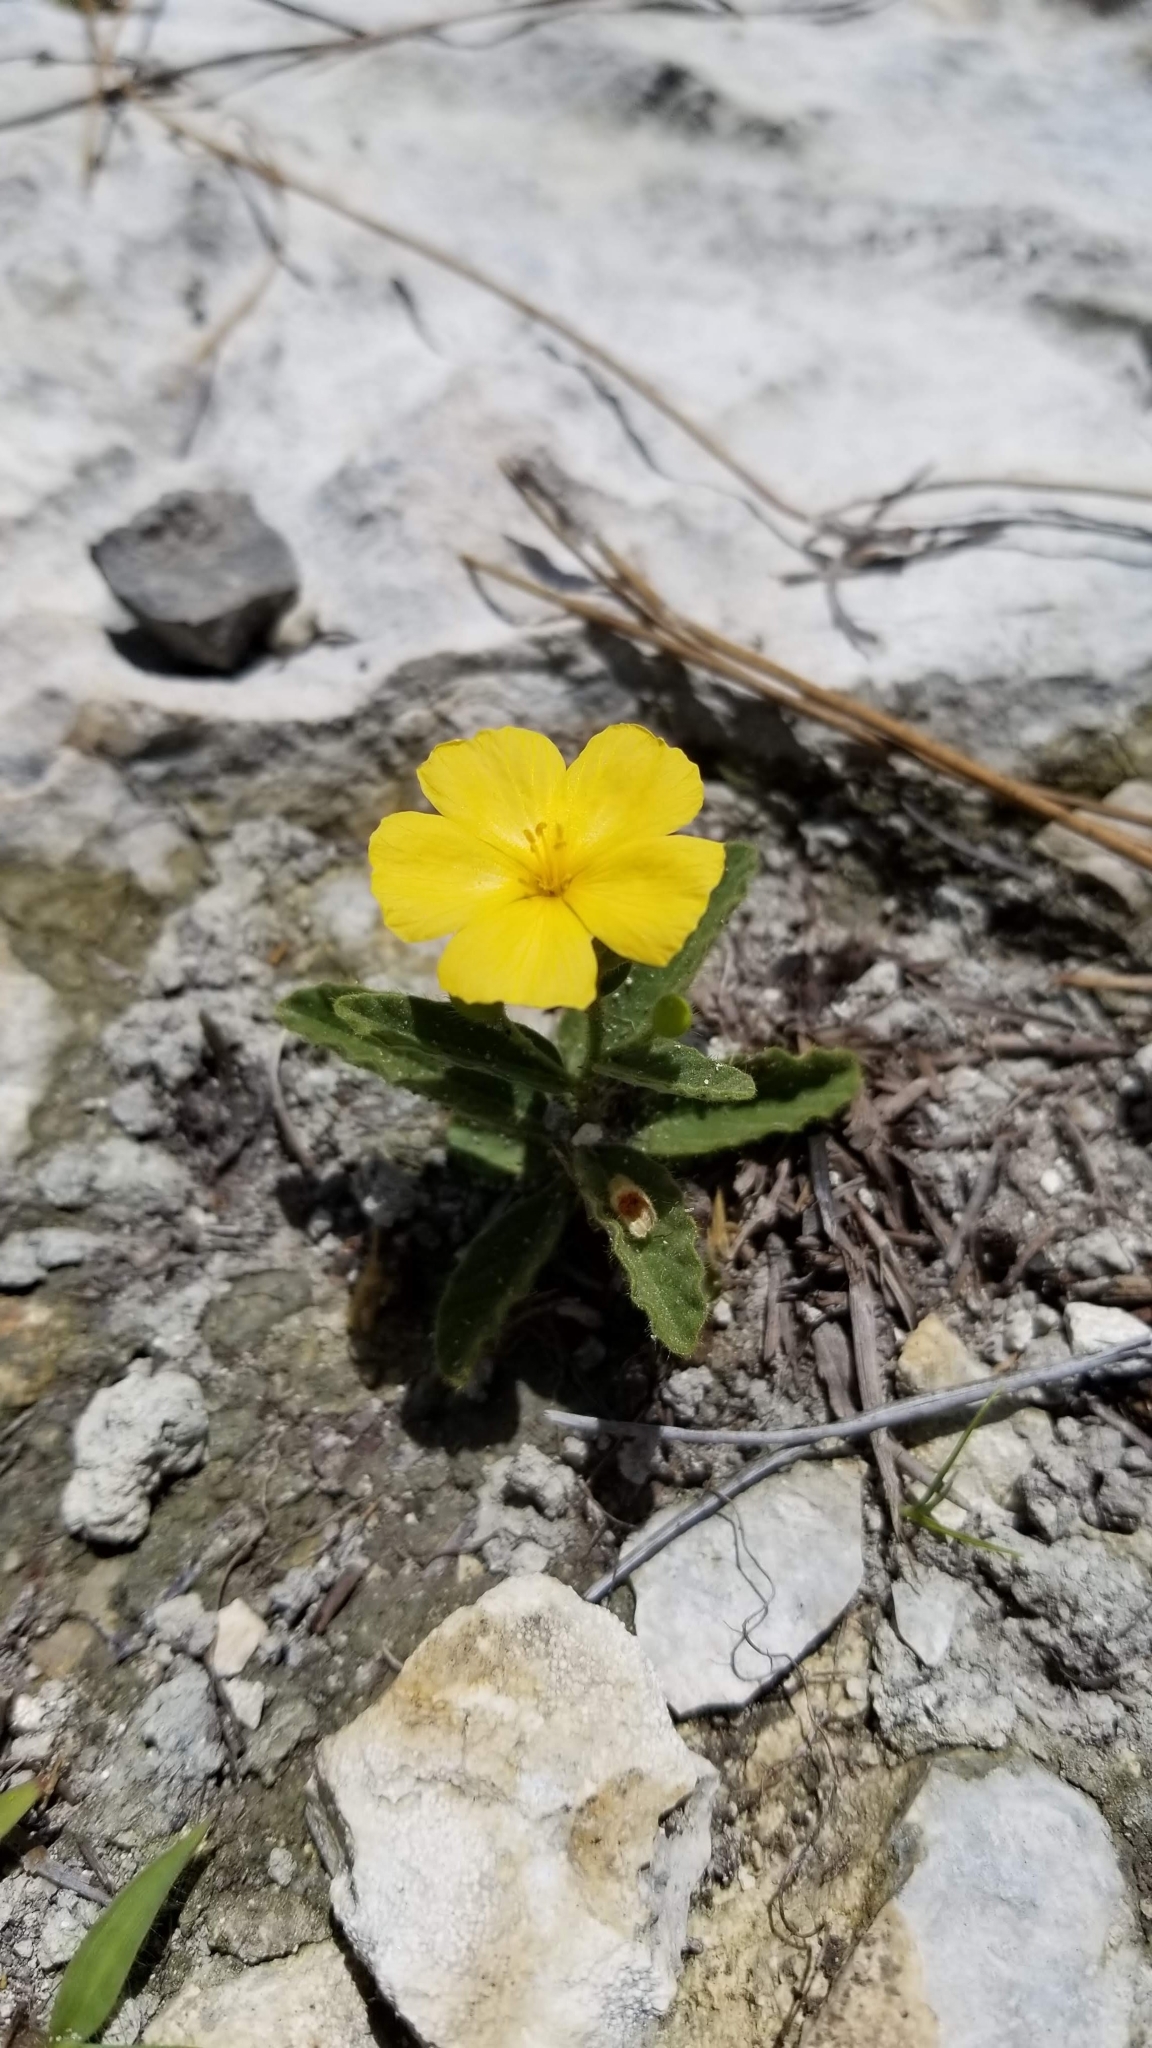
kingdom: Plantae
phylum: Tracheophyta
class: Magnoliopsida
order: Malpighiales
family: Turneraceae
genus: Piriqueta
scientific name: Piriqueta cistoides
